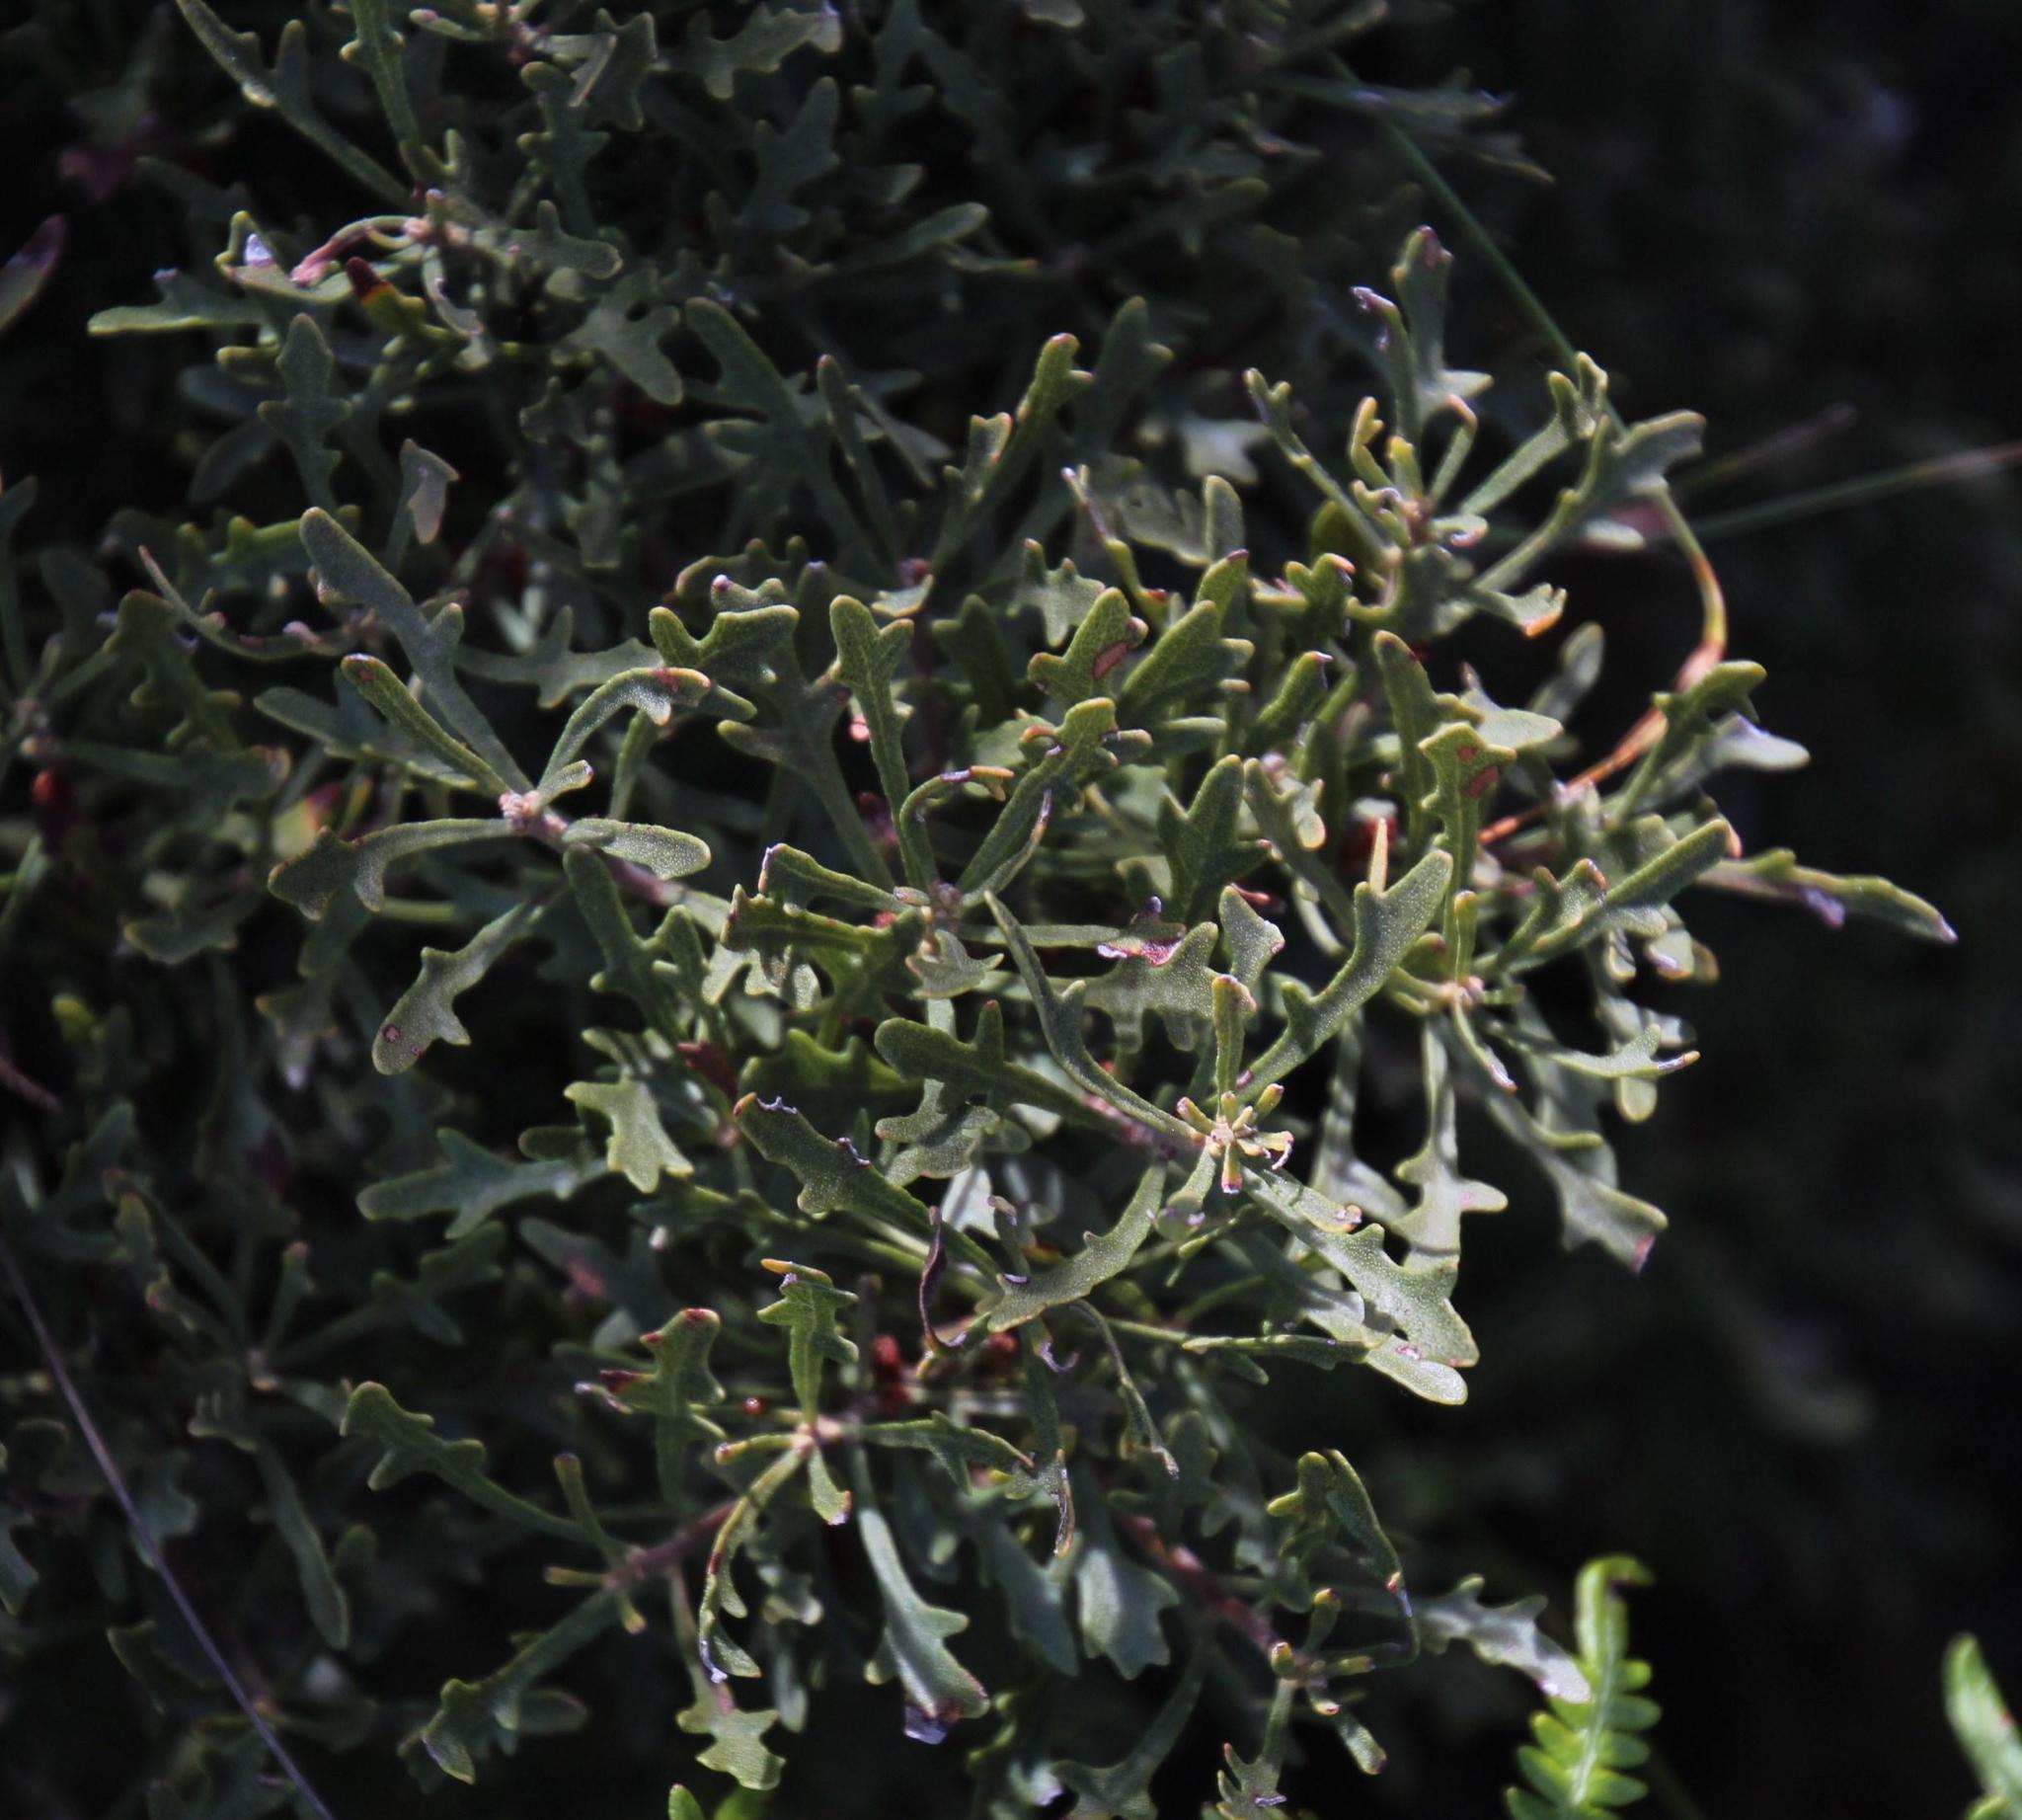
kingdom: Plantae
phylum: Tracheophyta
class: Magnoliopsida
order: Fagales
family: Myricaceae
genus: Morella
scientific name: Morella quercifolia
